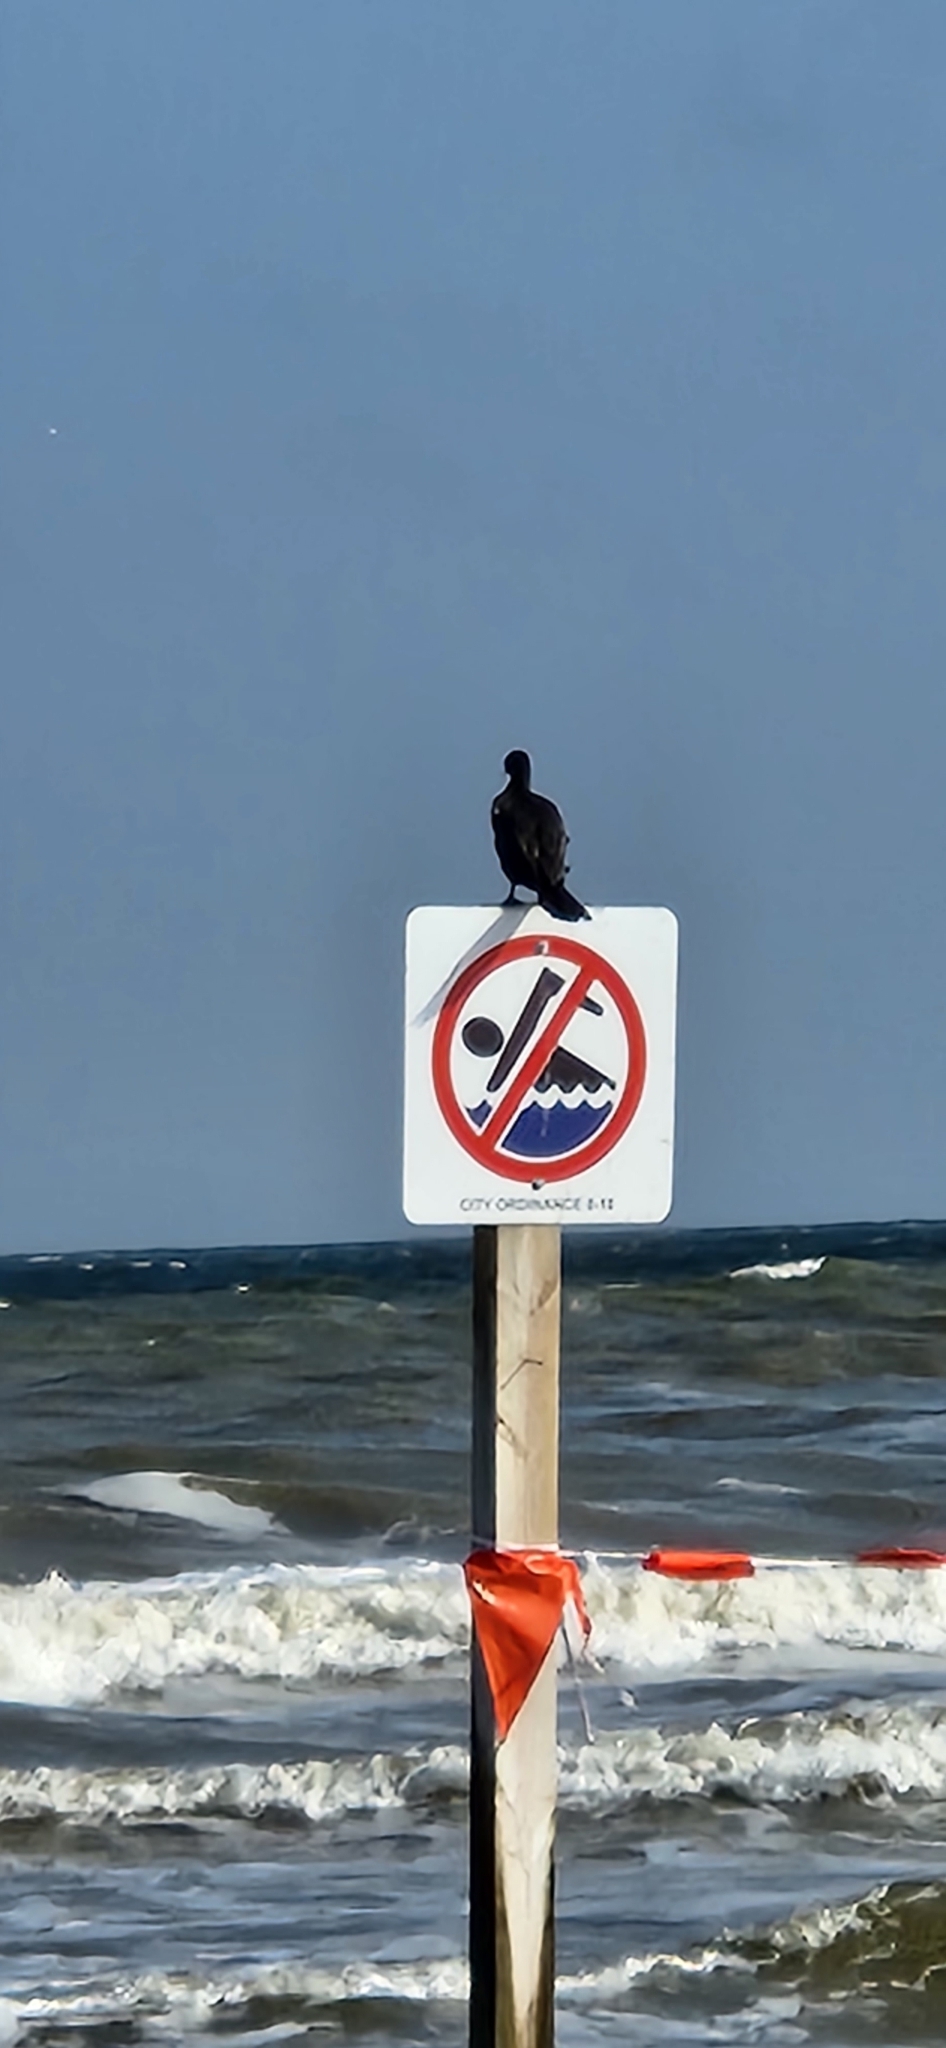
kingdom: Animalia
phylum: Chordata
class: Aves
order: Suliformes
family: Phalacrocoracidae
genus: Phalacrocorax
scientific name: Phalacrocorax brasilianus
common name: Neotropic cormorant
